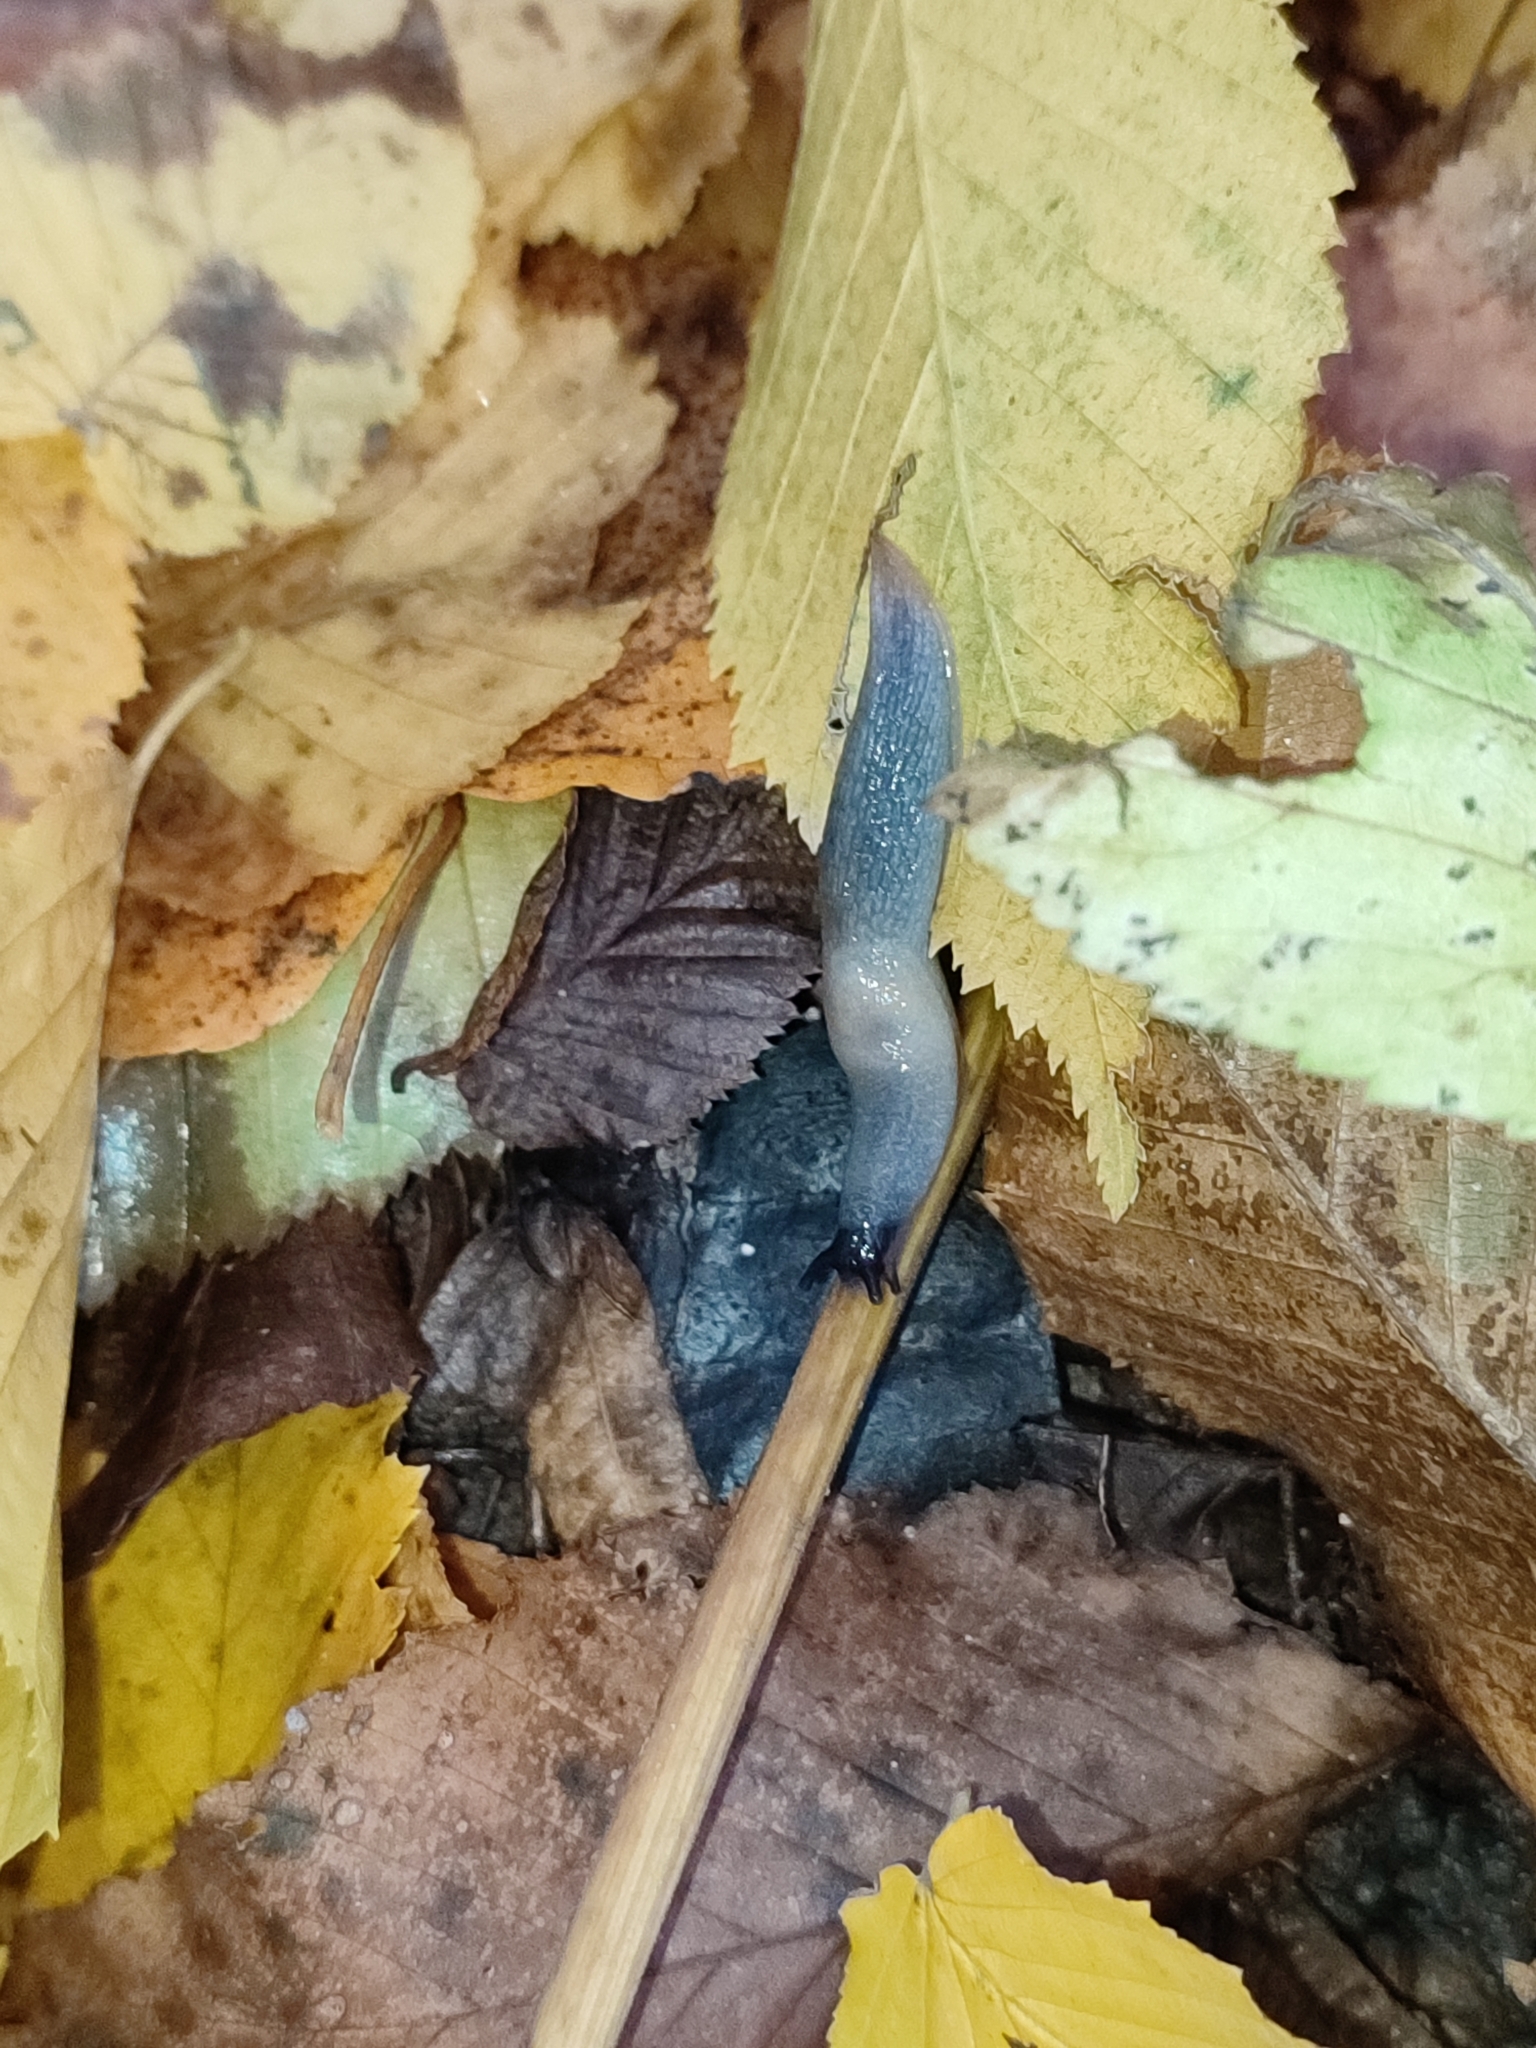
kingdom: Animalia
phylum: Mollusca
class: Gastropoda
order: Stylommatophora
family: Agriolimacidae
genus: Krynickillus
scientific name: Krynickillus melanocephalus
